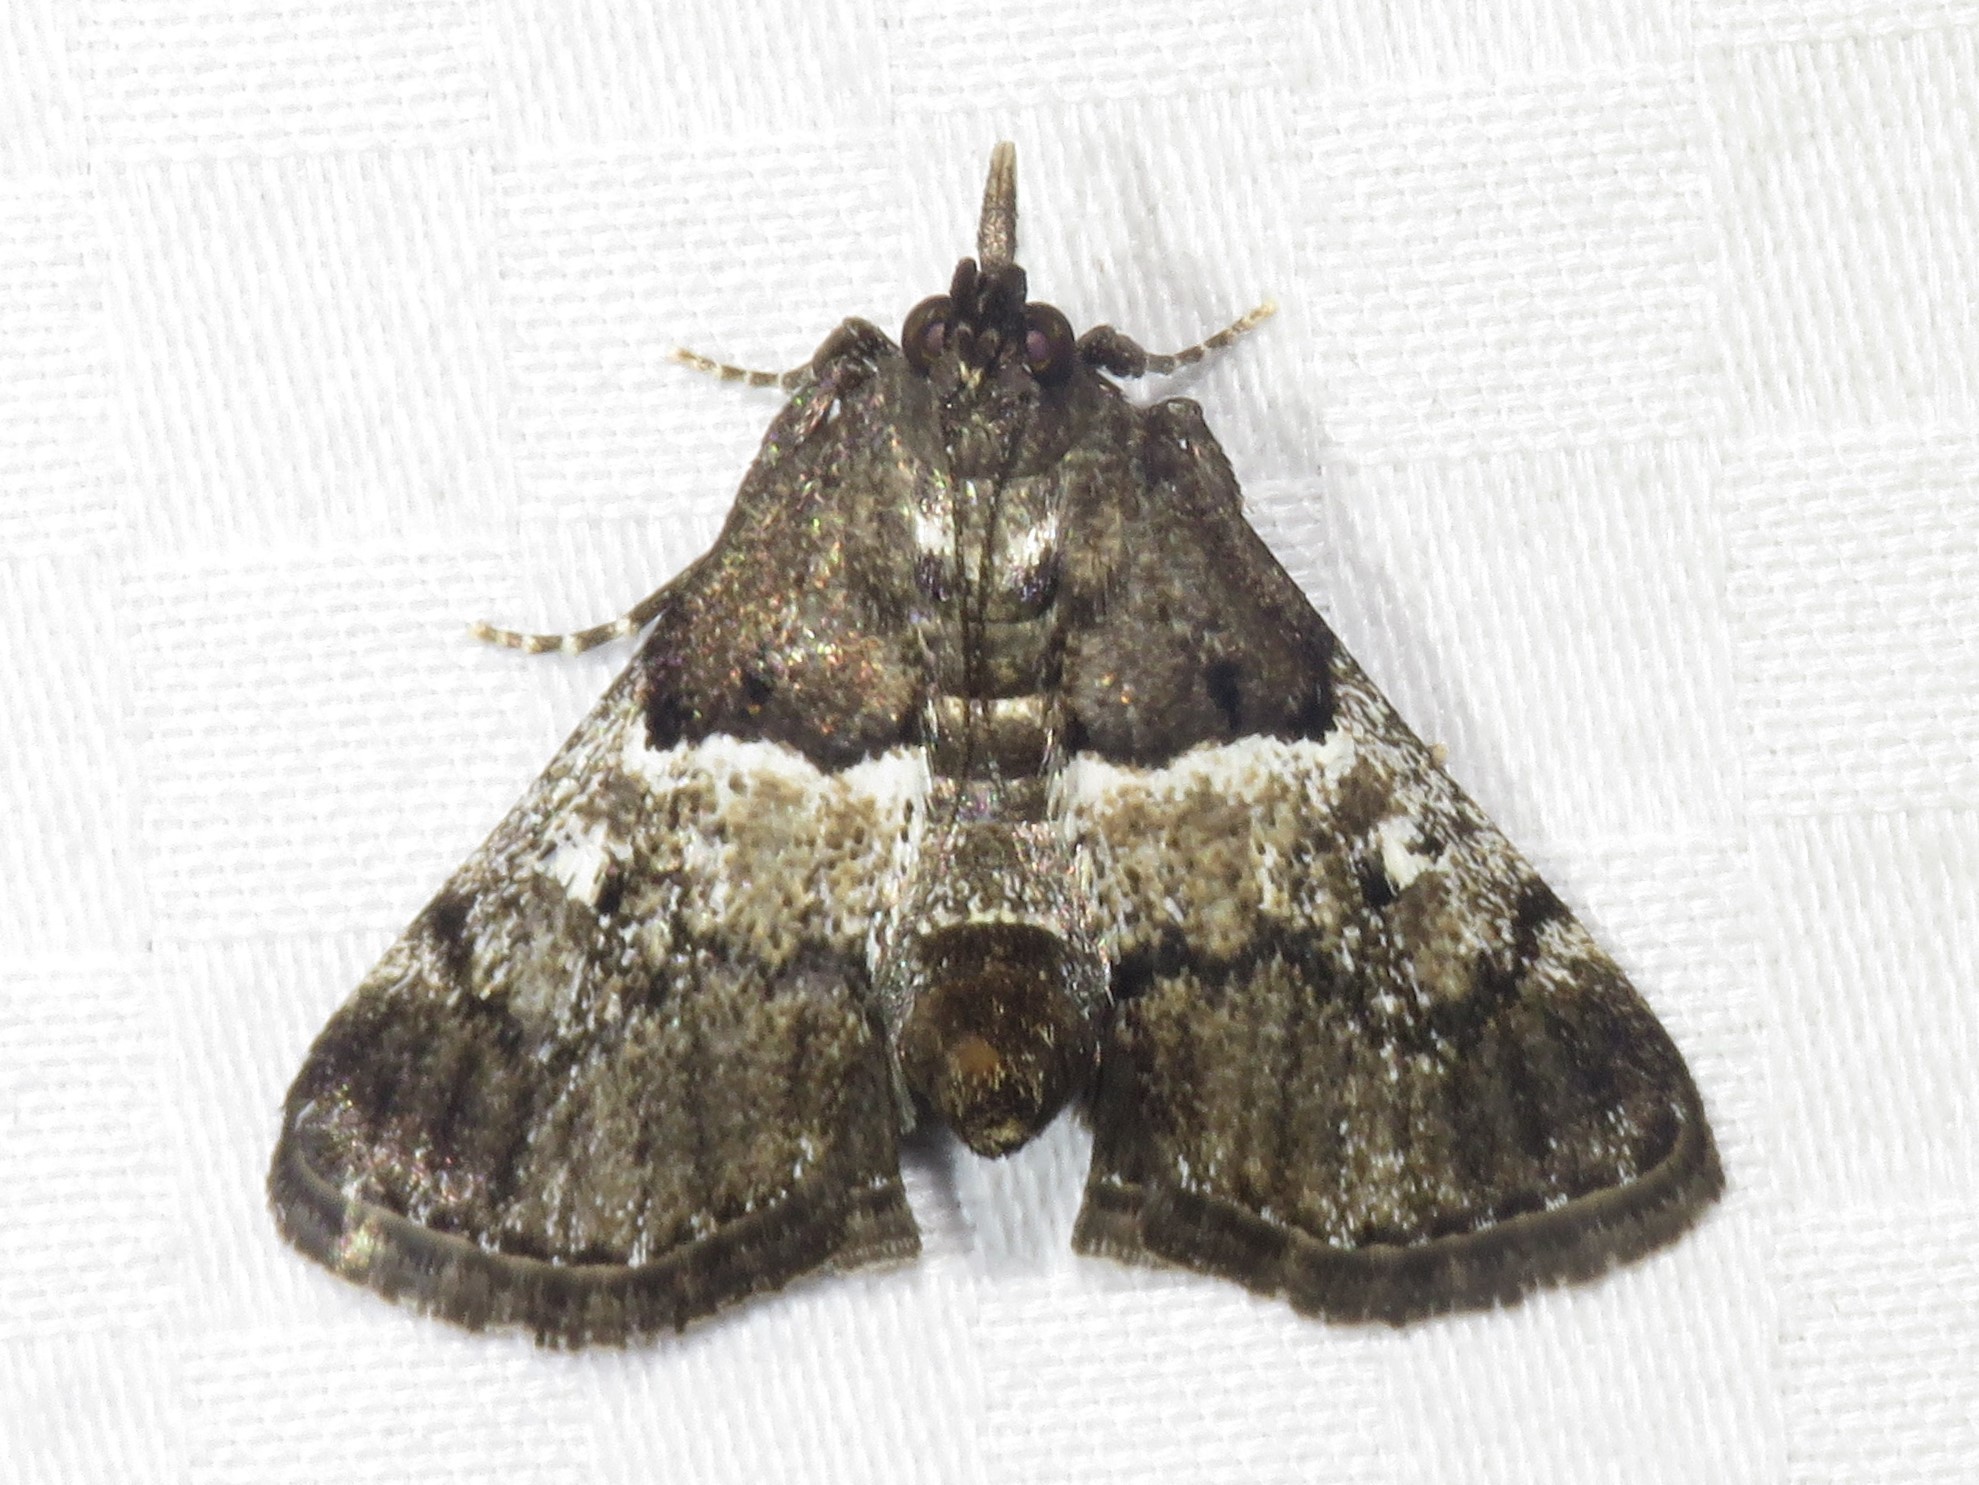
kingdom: Animalia
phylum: Arthropoda
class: Insecta
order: Lepidoptera
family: Pyralidae
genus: Macalla
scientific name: Macalla zelleri
